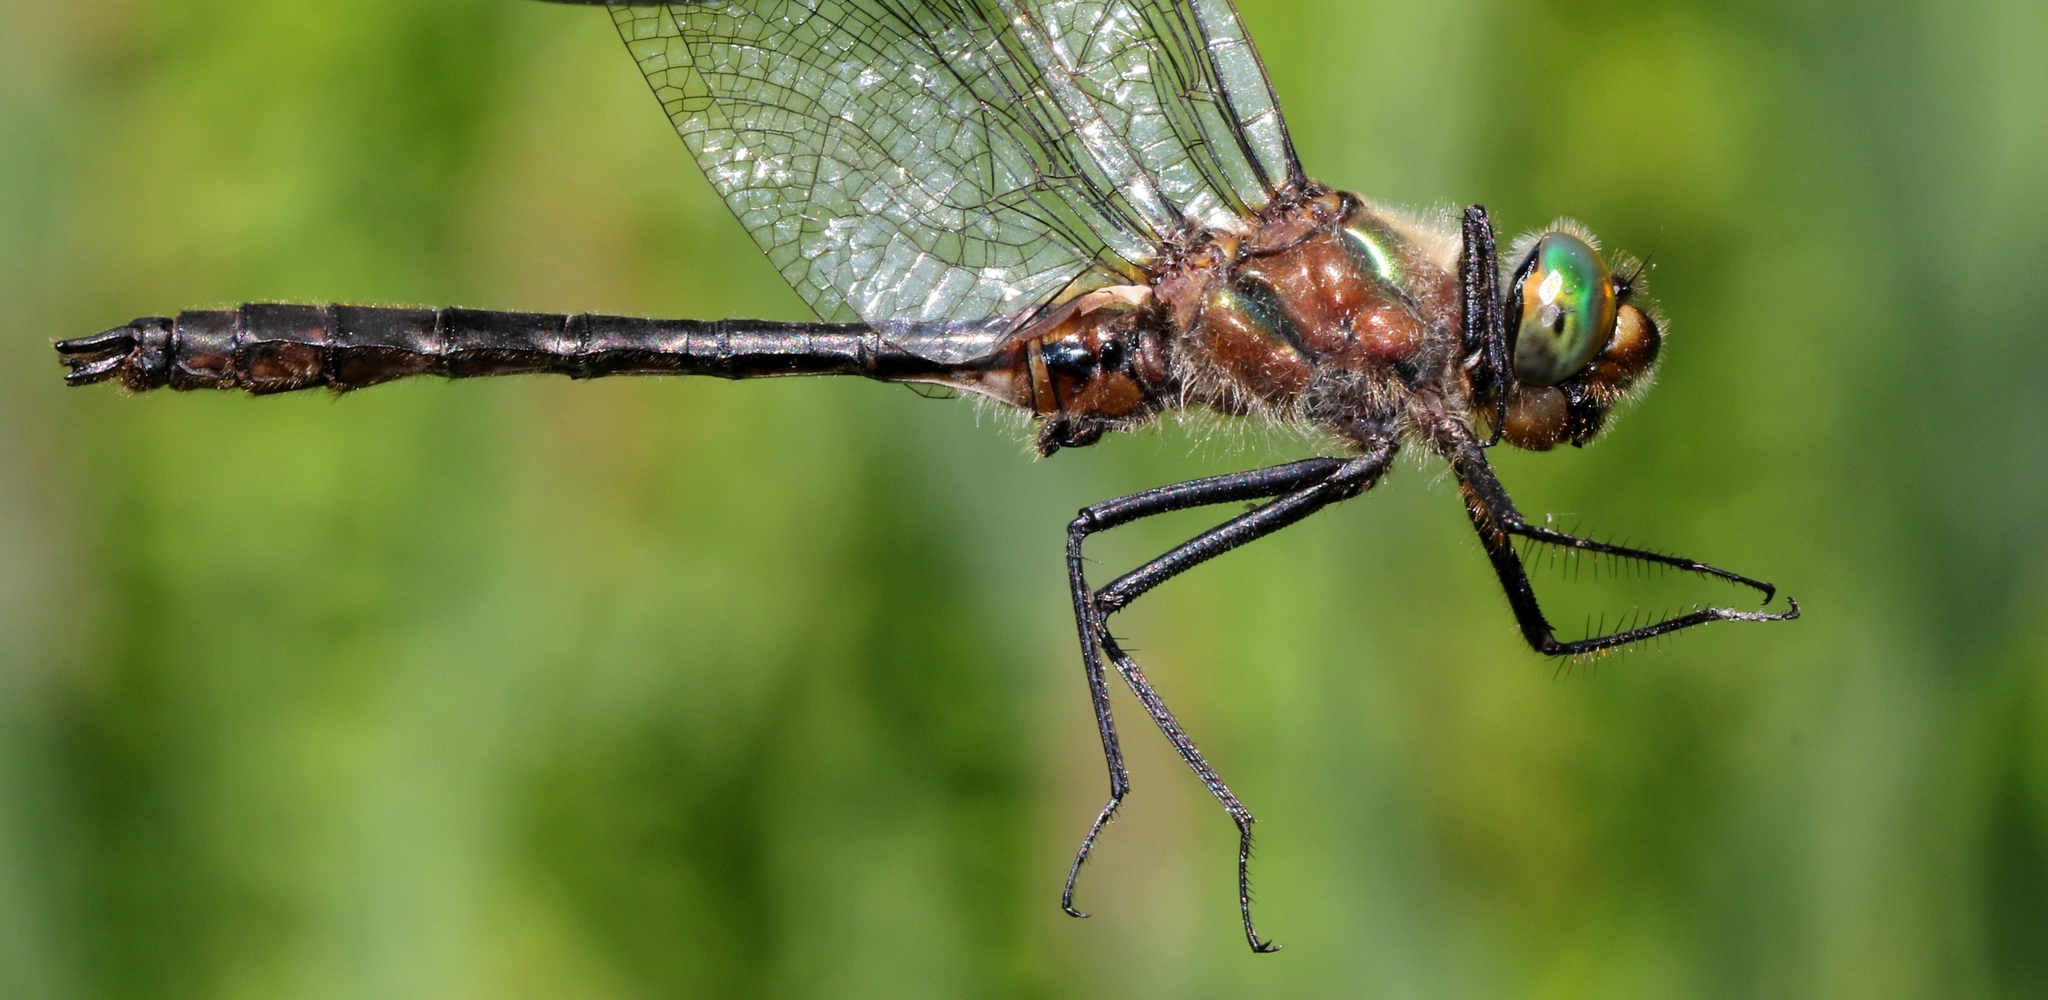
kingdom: Animalia
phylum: Arthropoda
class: Insecta
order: Odonata
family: Corduliidae
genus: Cordulia
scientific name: Cordulia shurtleffii
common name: American emerald
